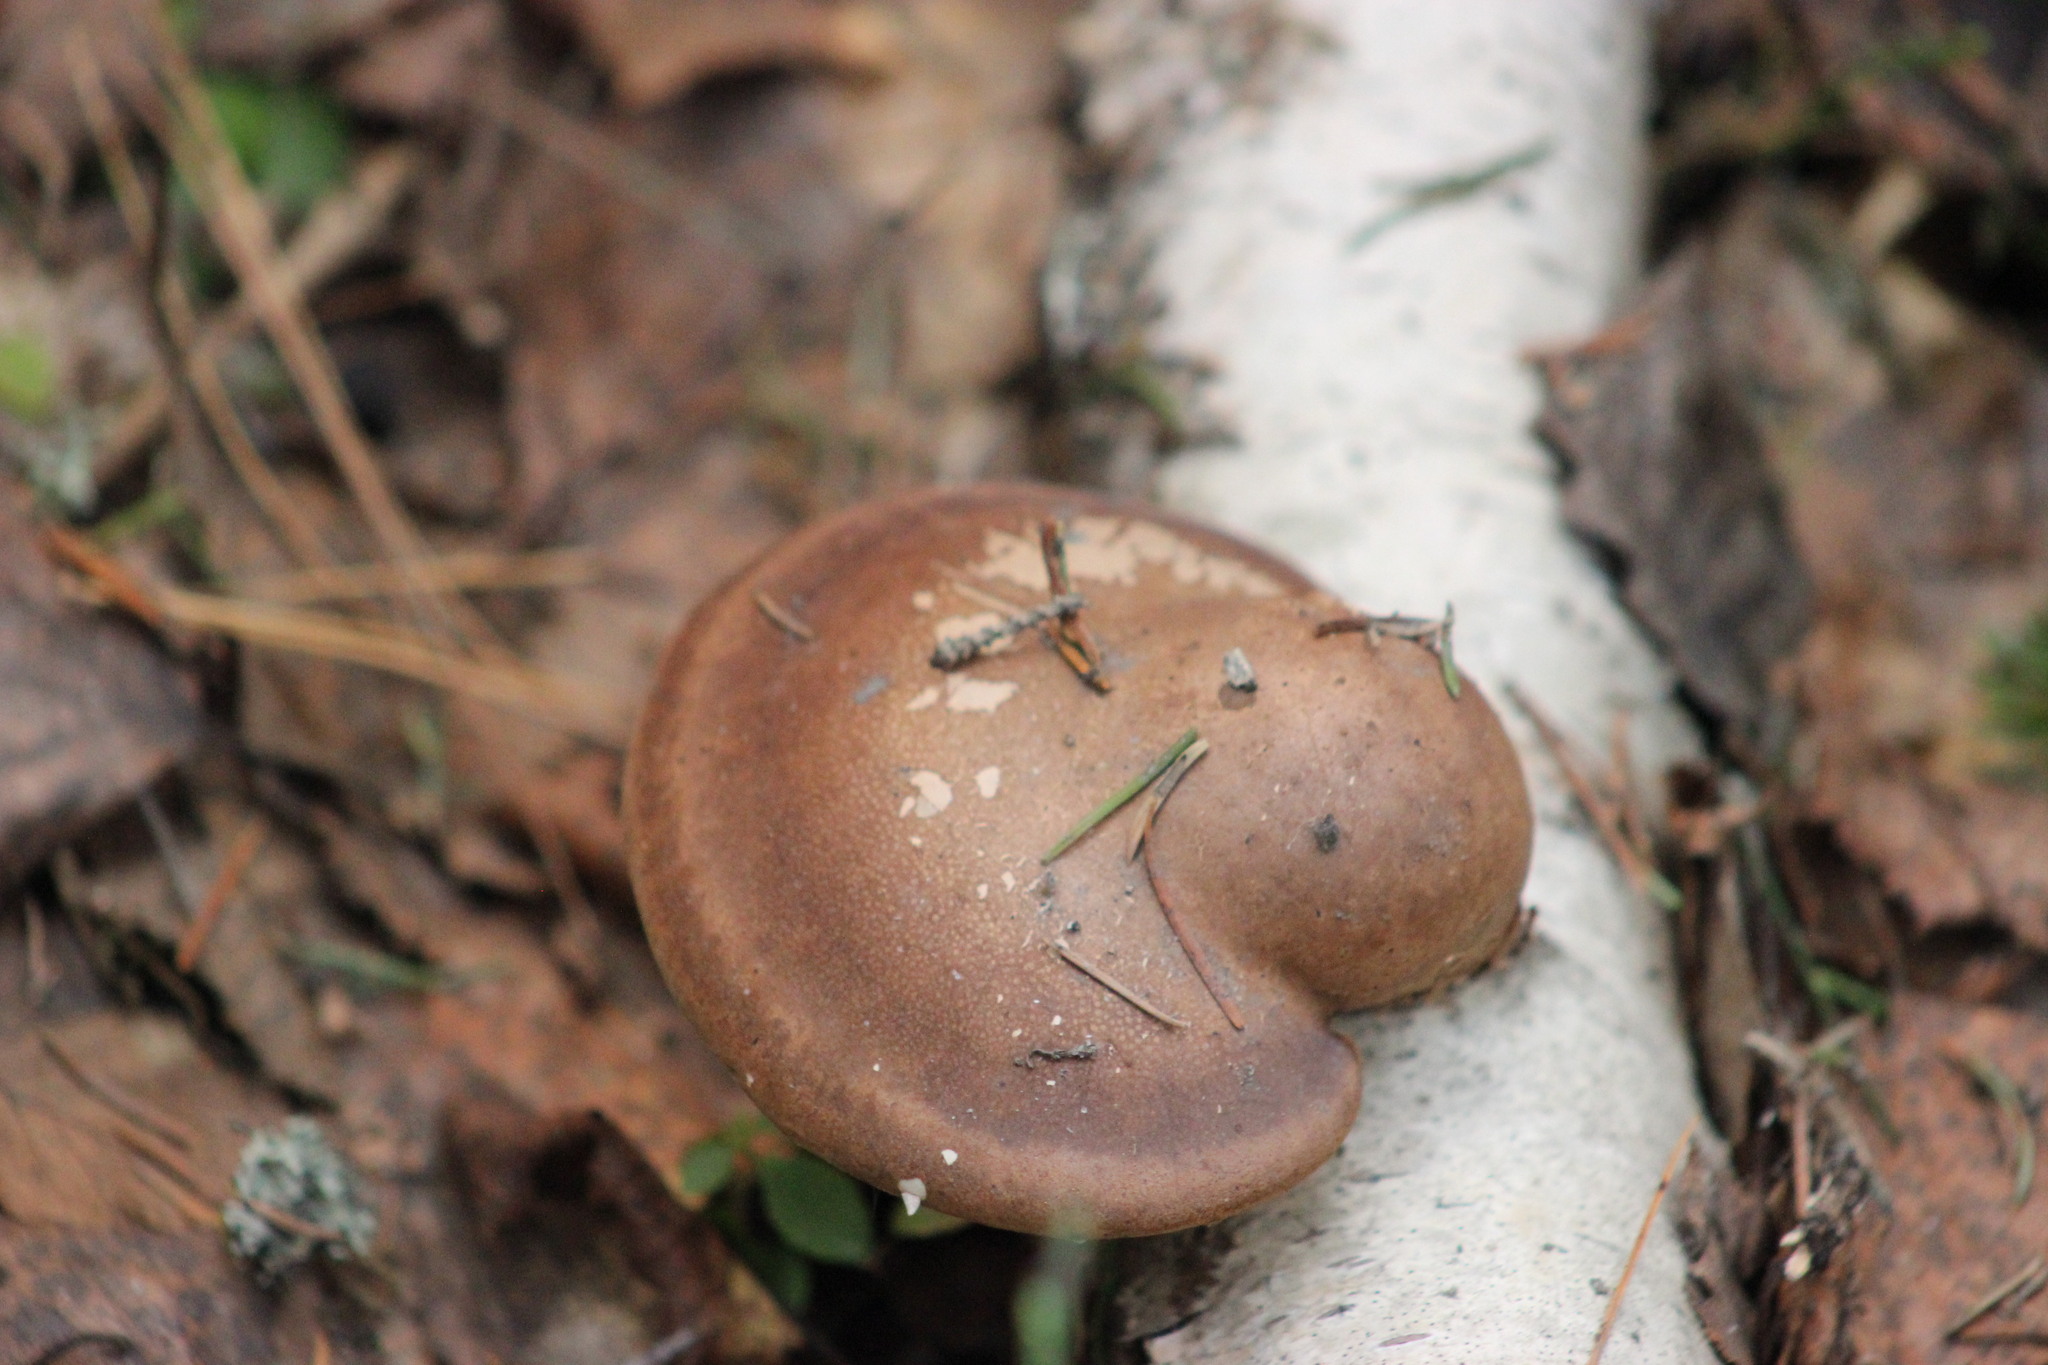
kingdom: Fungi
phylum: Basidiomycota
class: Agaricomycetes
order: Polyporales
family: Fomitopsidaceae
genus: Fomitopsis
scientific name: Fomitopsis betulina
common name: Birch polypore
